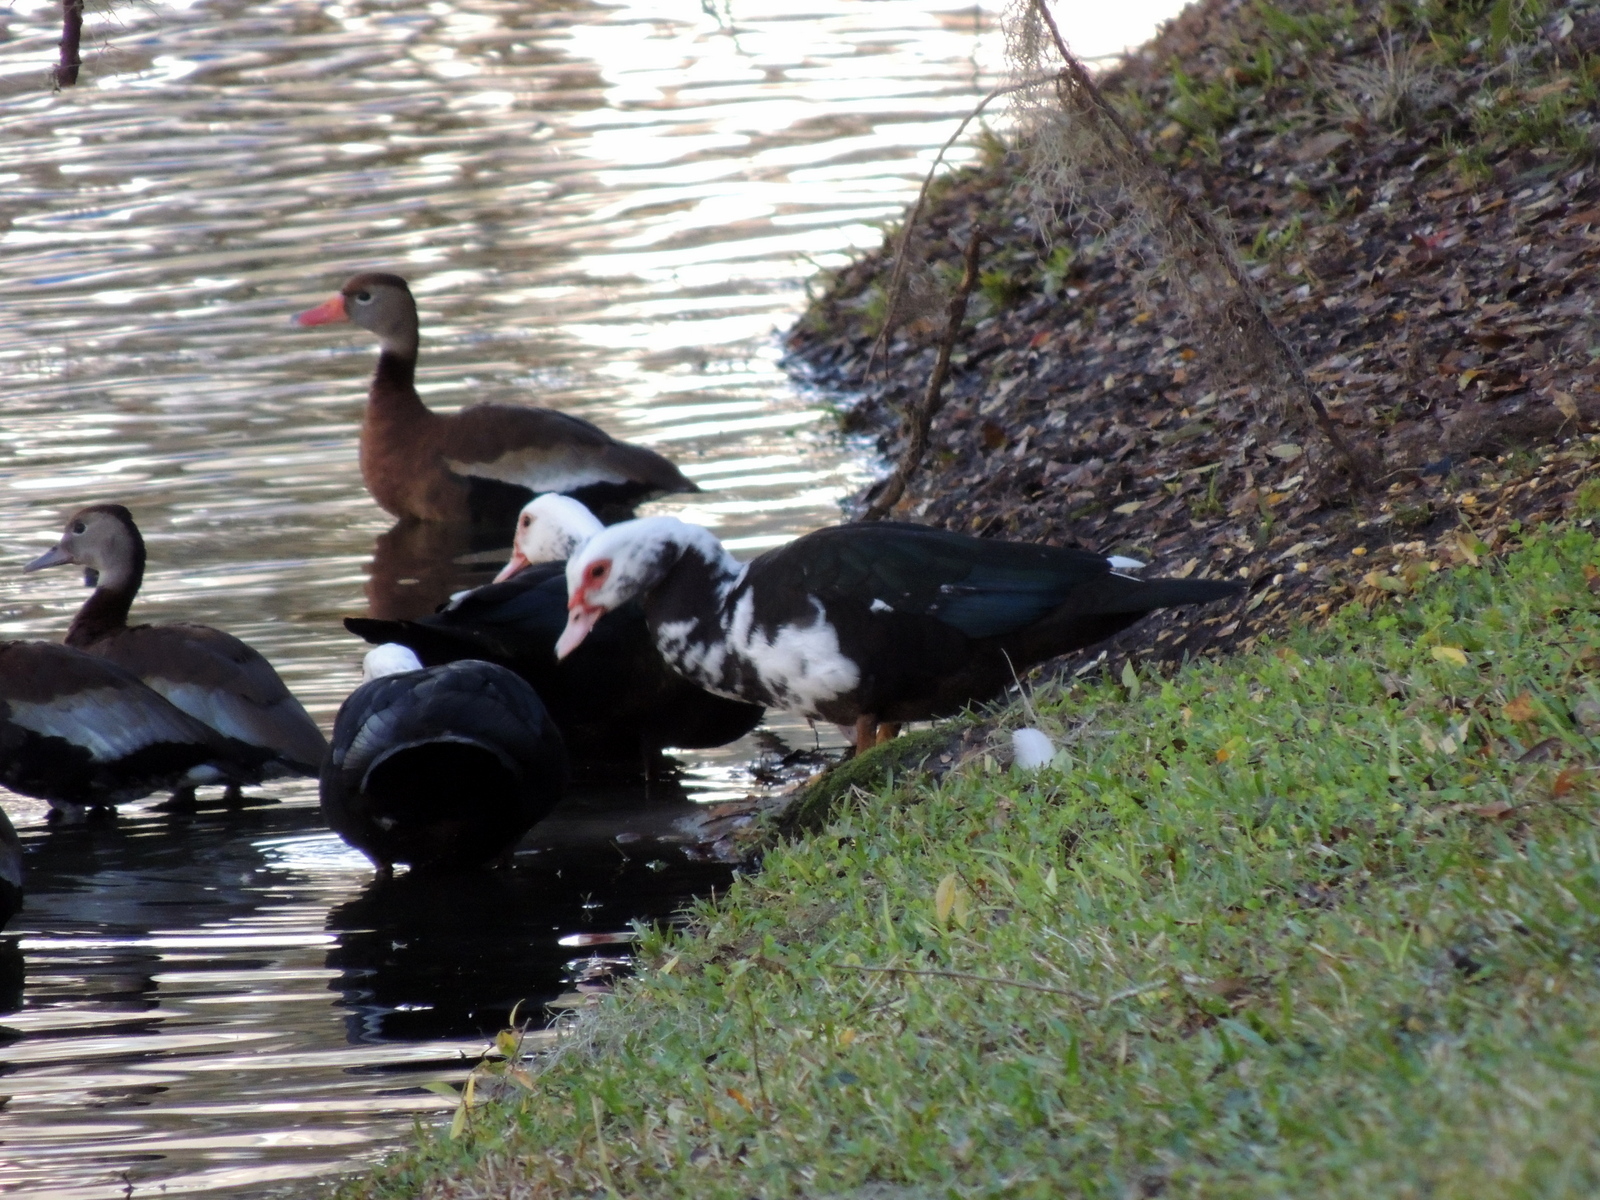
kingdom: Animalia
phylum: Chordata
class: Aves
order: Anseriformes
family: Anatidae
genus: Cairina
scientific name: Cairina moschata
